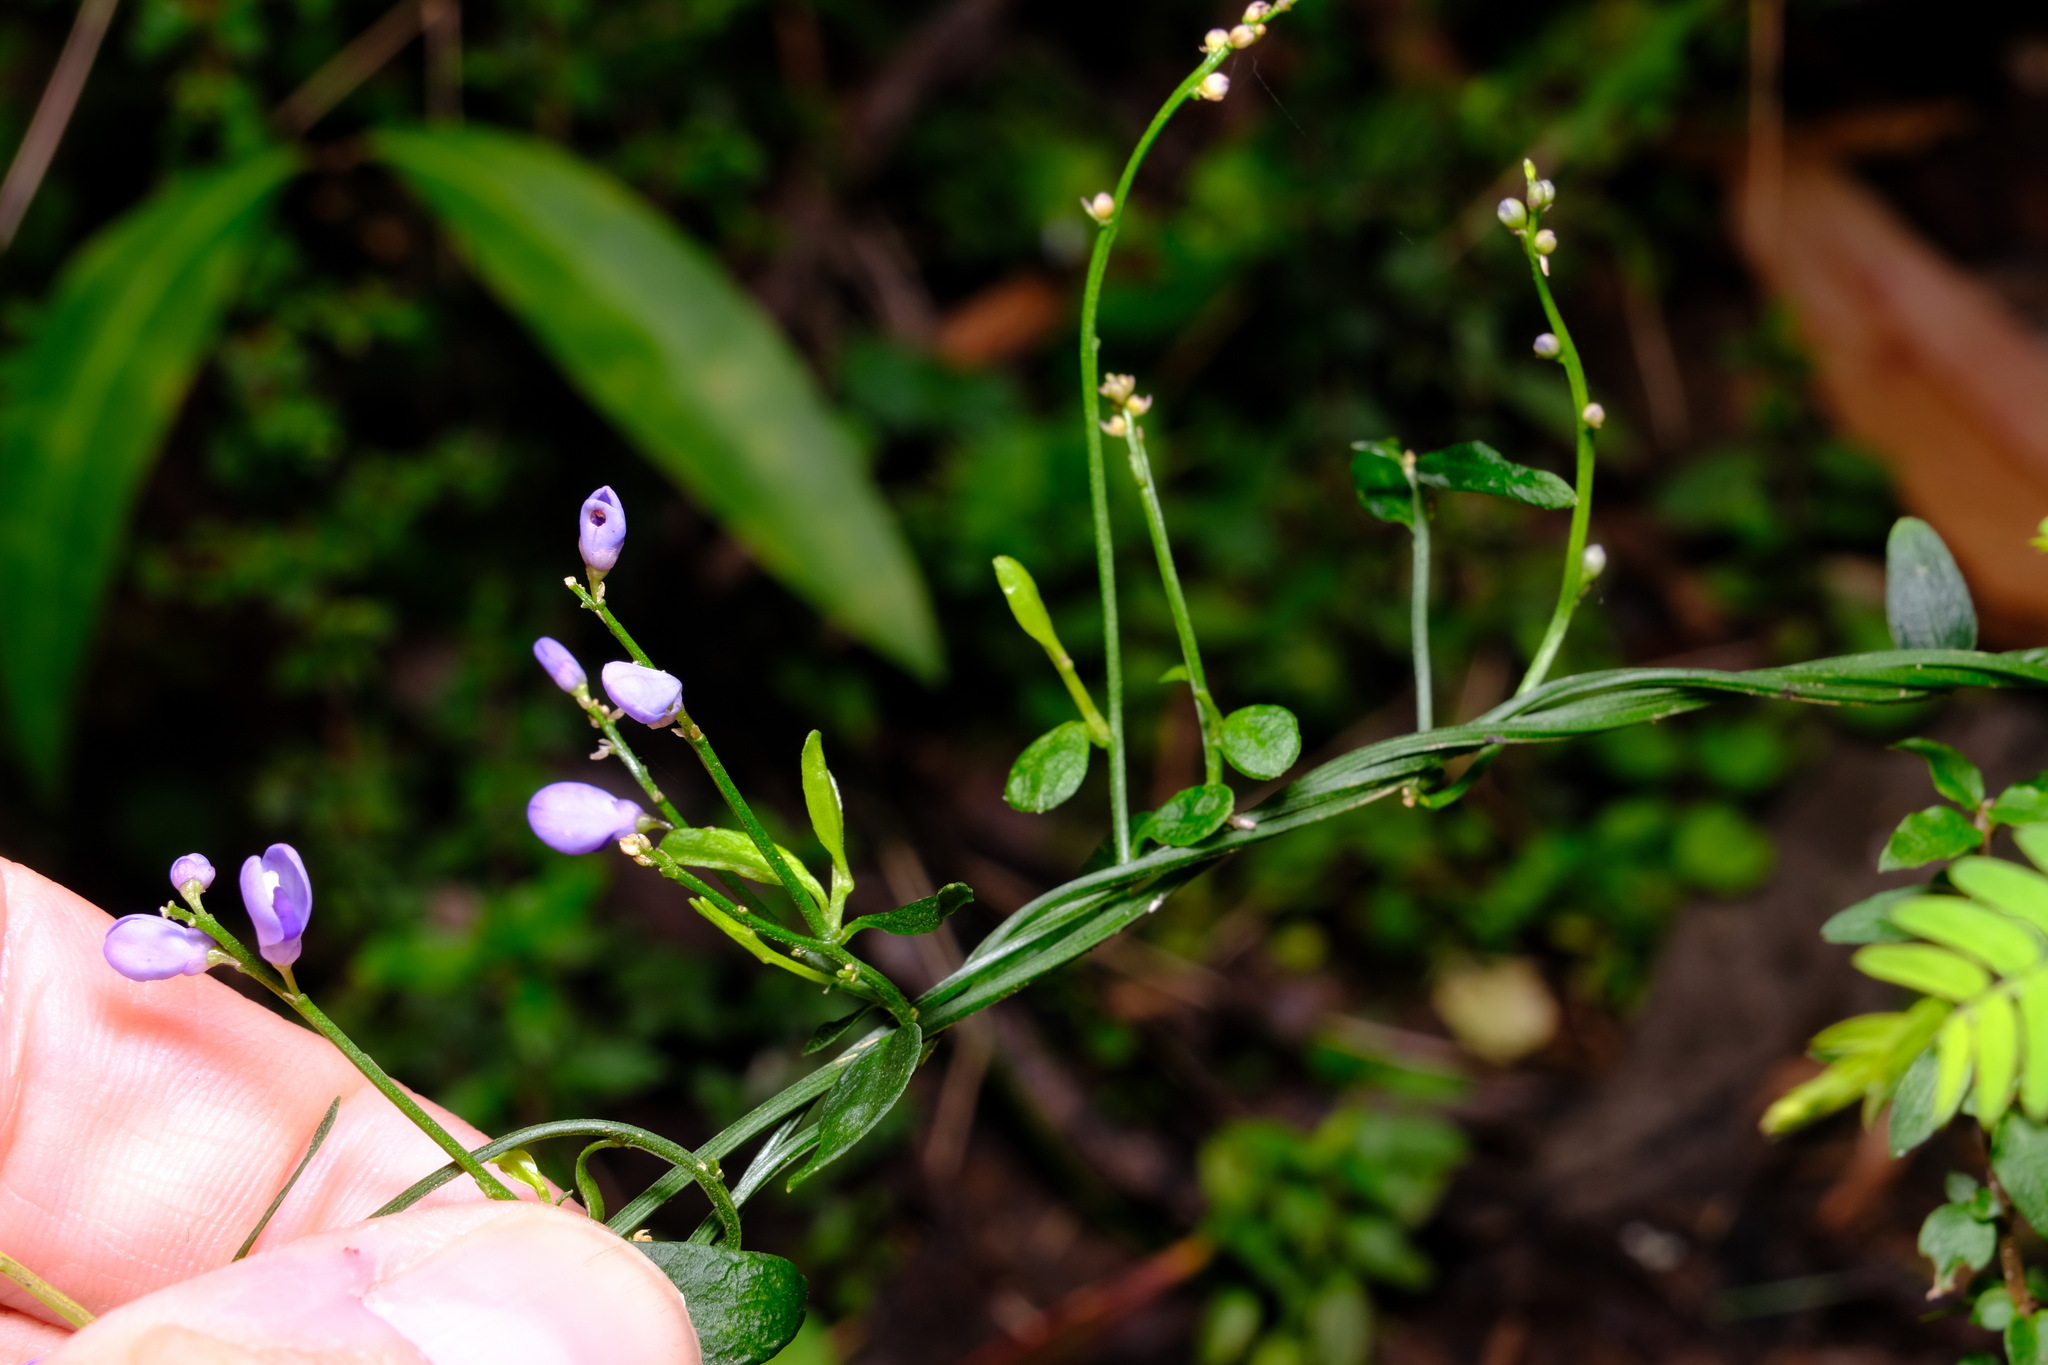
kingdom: Plantae
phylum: Tracheophyta
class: Magnoliopsida
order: Fabales
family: Polygalaceae
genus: Comesperma
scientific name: Comesperma volubile
